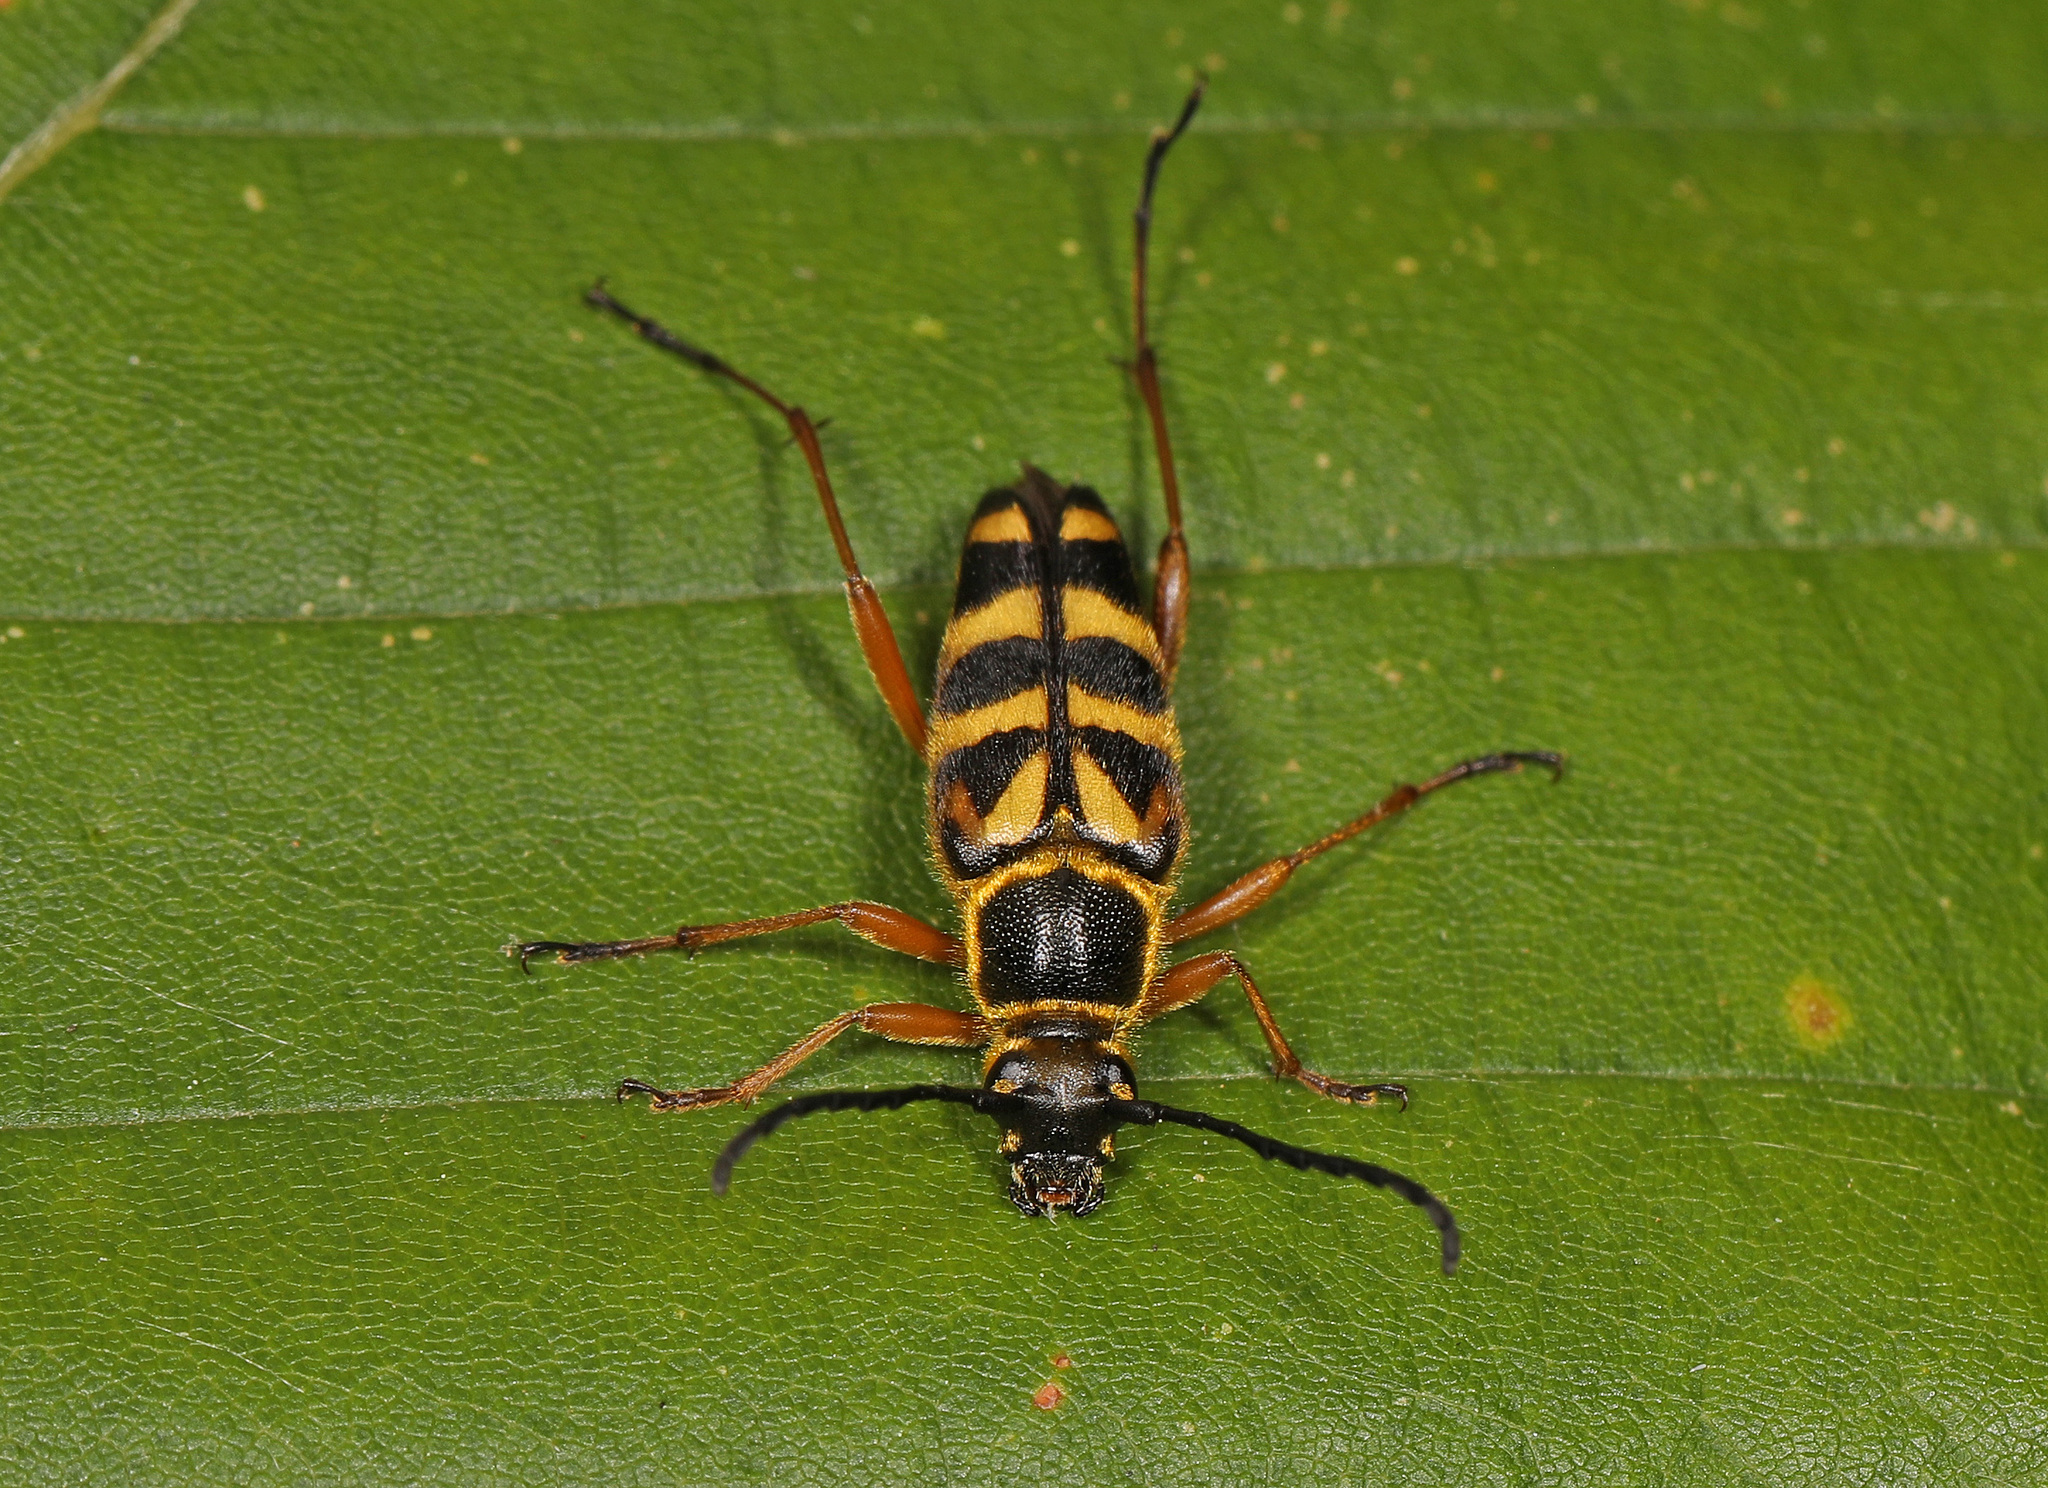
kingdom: Animalia
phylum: Arthropoda
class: Insecta
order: Coleoptera
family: Cerambycidae
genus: Typocerus
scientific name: Typocerus zebra
